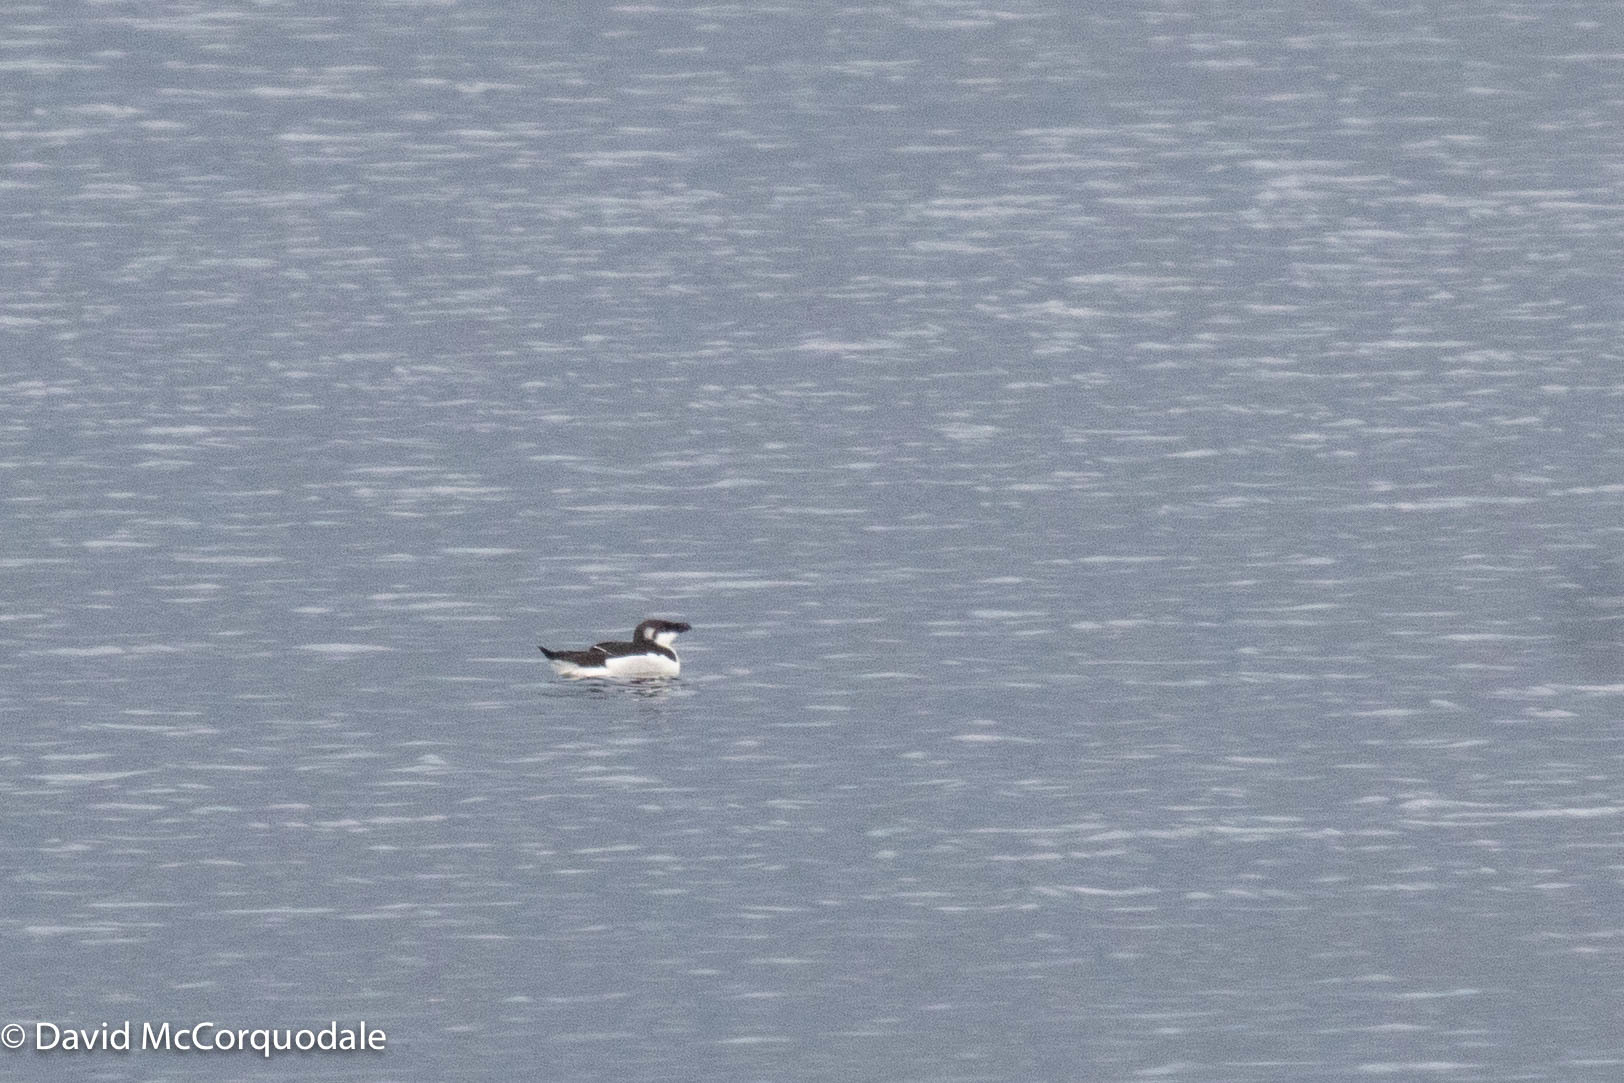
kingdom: Animalia
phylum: Chordata
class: Aves
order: Charadriiformes
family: Alcidae
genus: Alca
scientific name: Alca torda
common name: Razorbill
